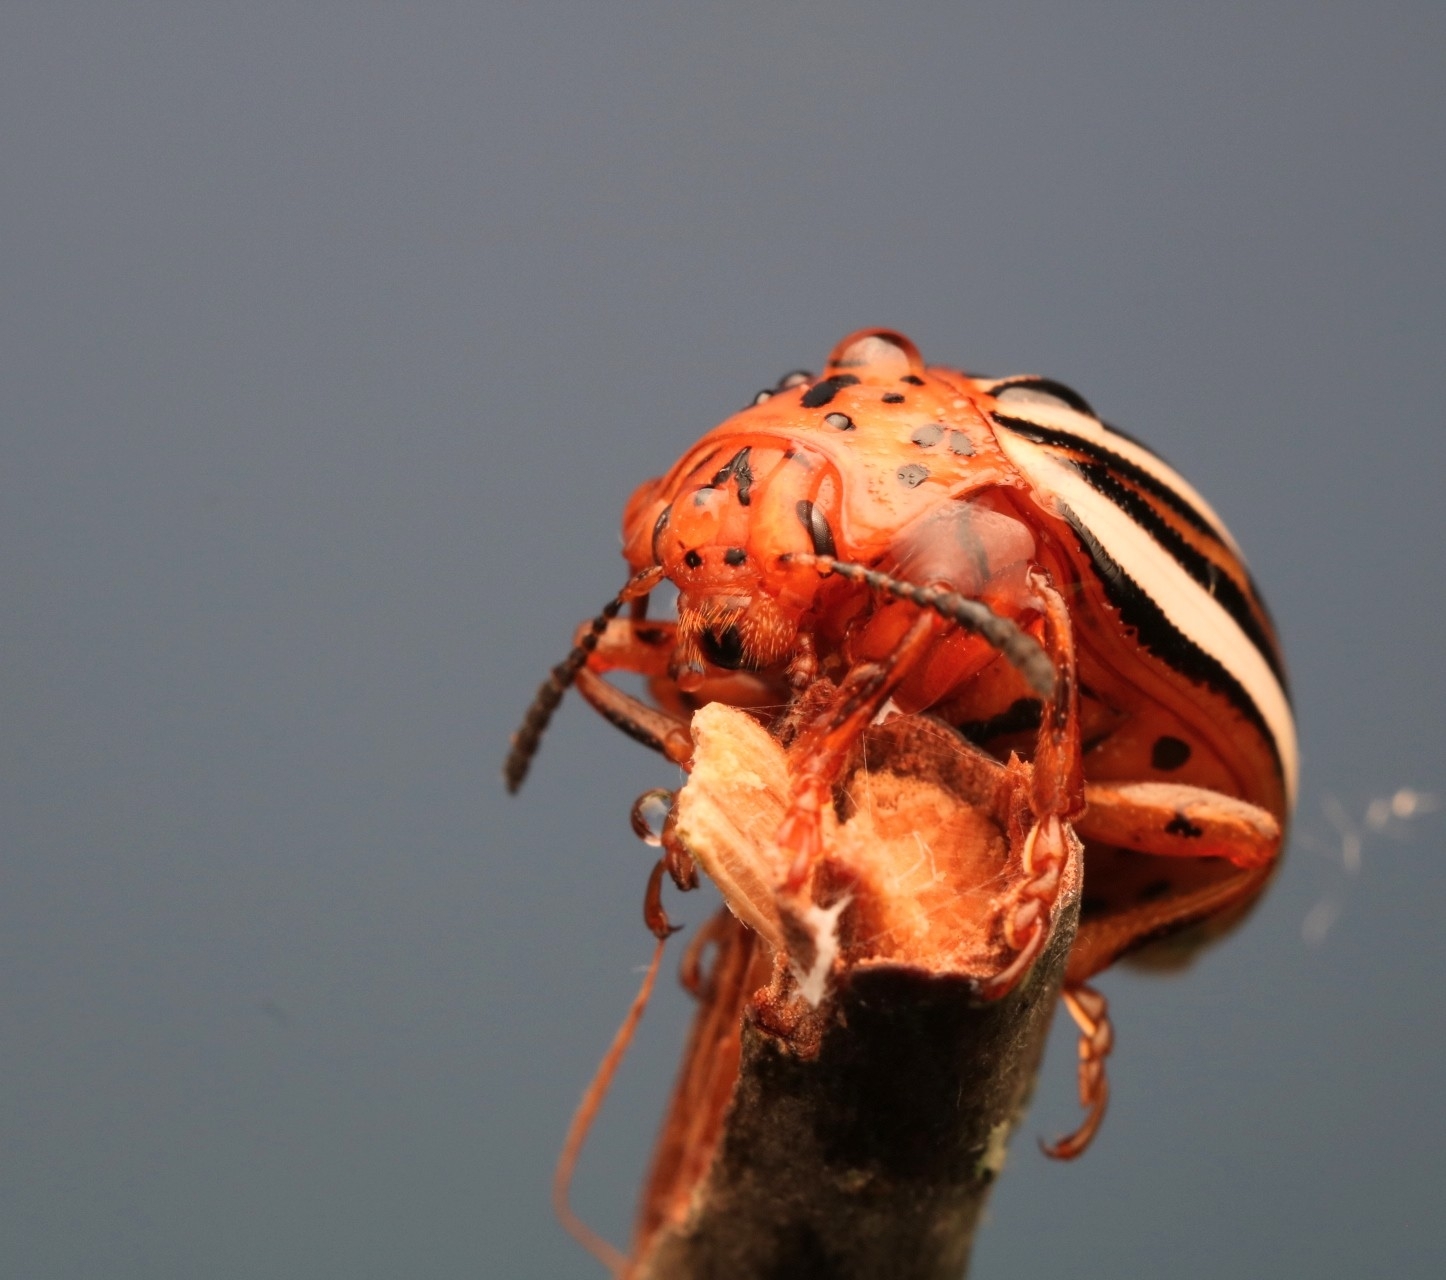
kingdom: Animalia
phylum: Arthropoda
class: Insecta
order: Coleoptera
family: Chrysomelidae
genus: Leptinotarsa
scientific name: Leptinotarsa juncta
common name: False potato beetle
